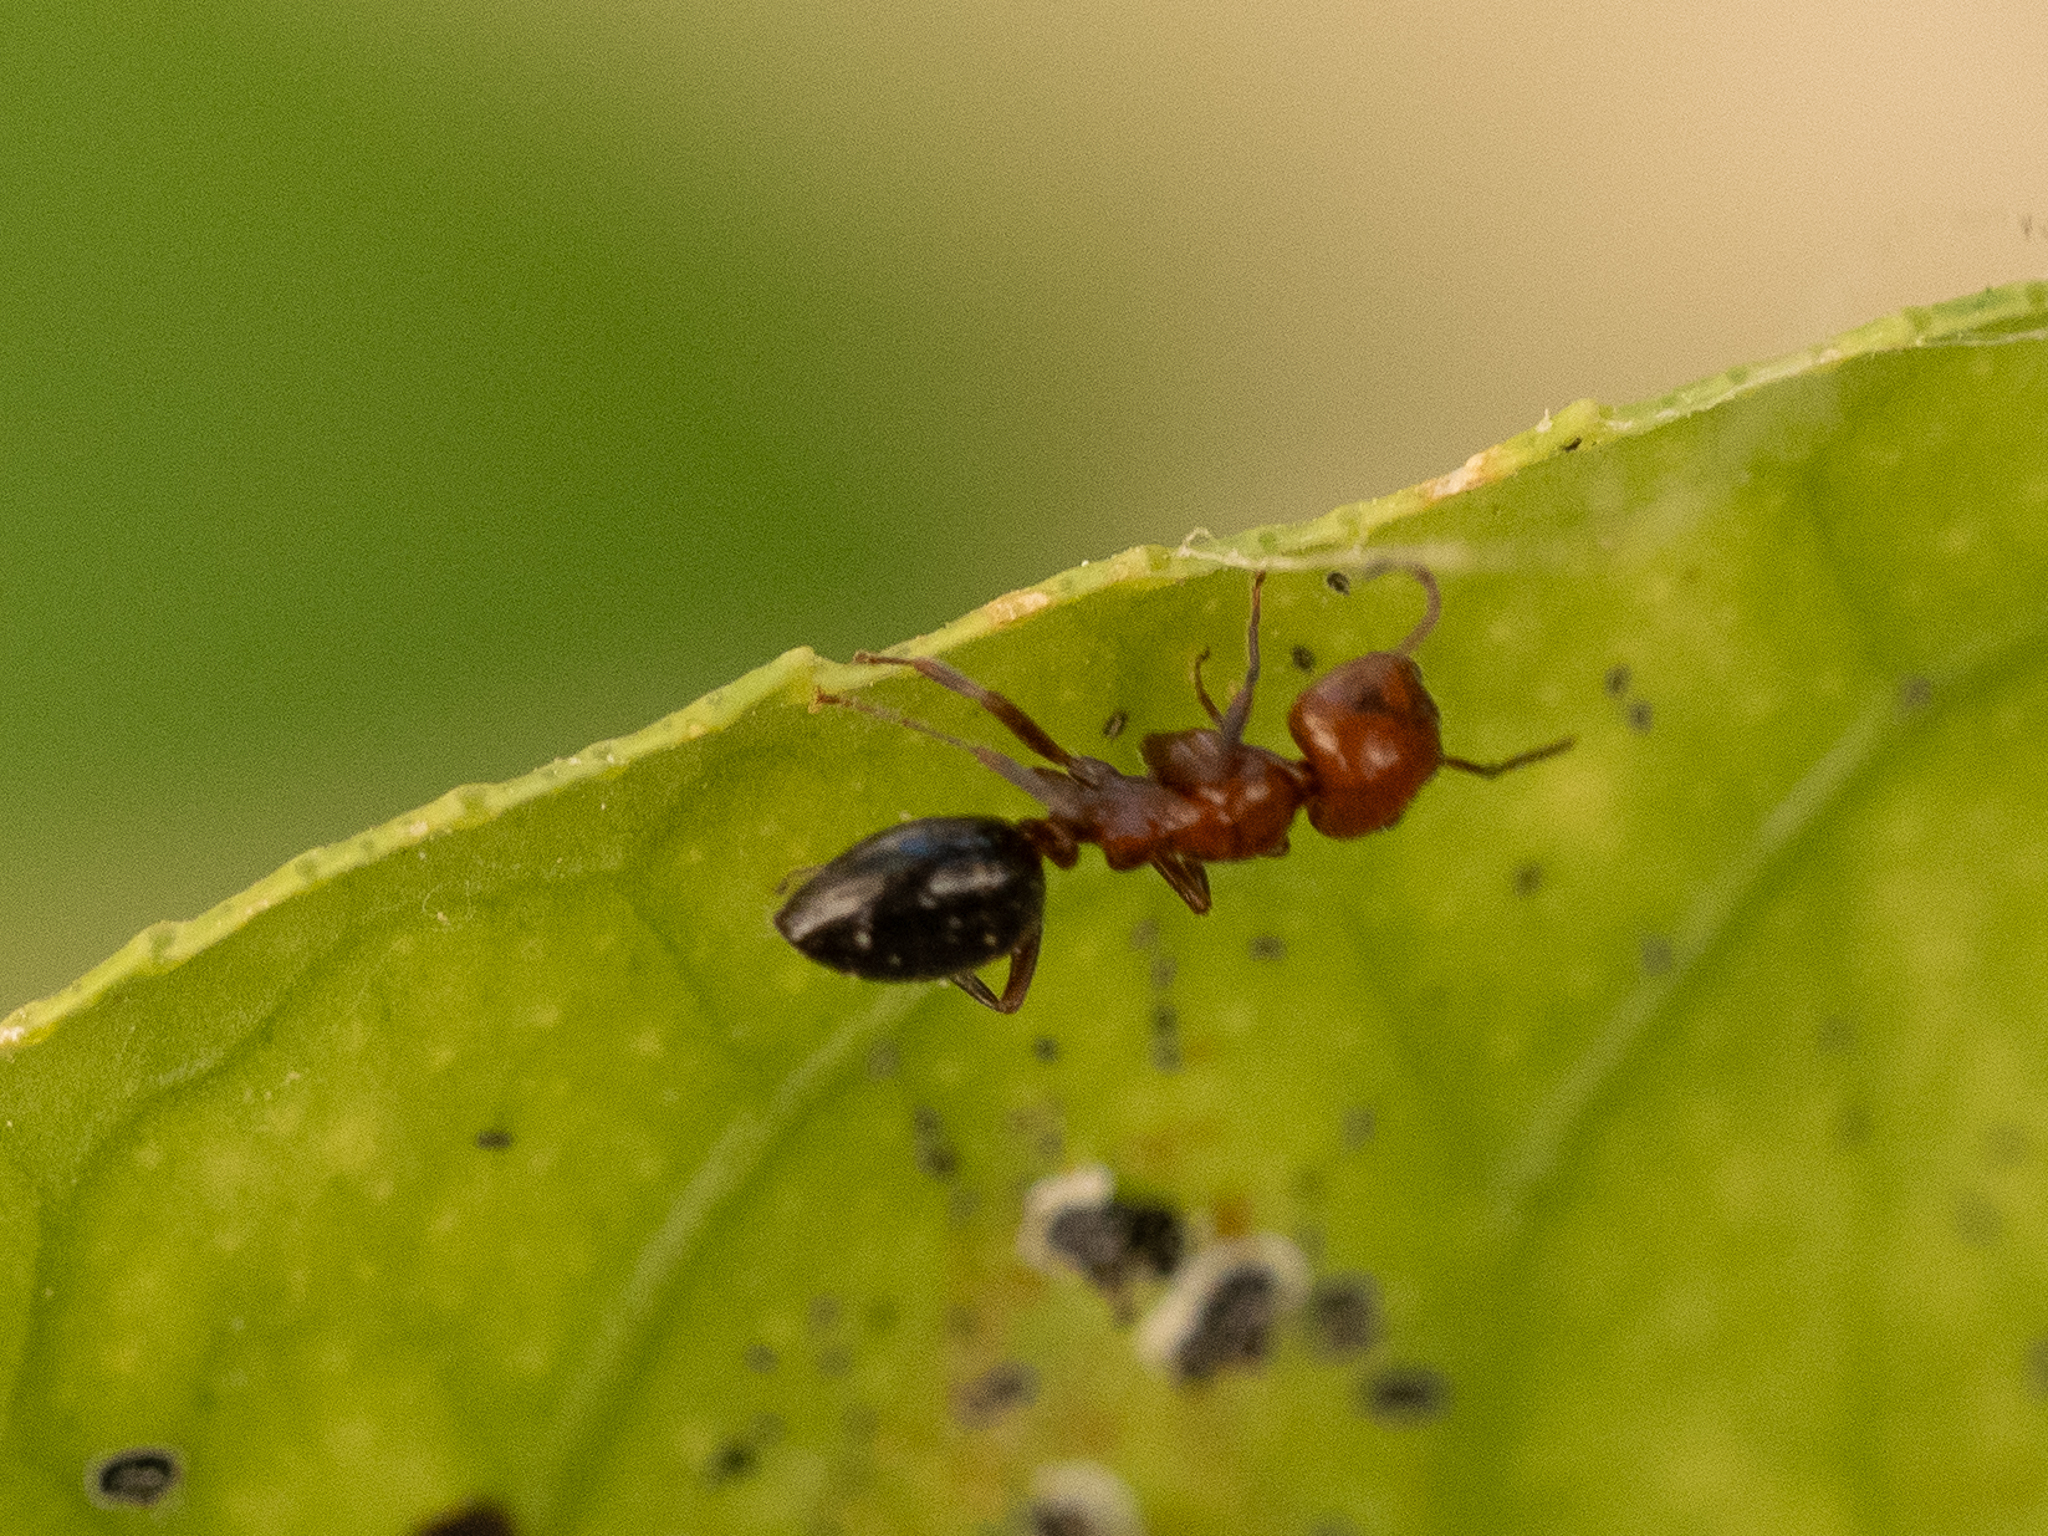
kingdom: Animalia
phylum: Arthropoda
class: Insecta
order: Hymenoptera
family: Formicidae
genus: Camponotus
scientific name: Camponotus lateralis
